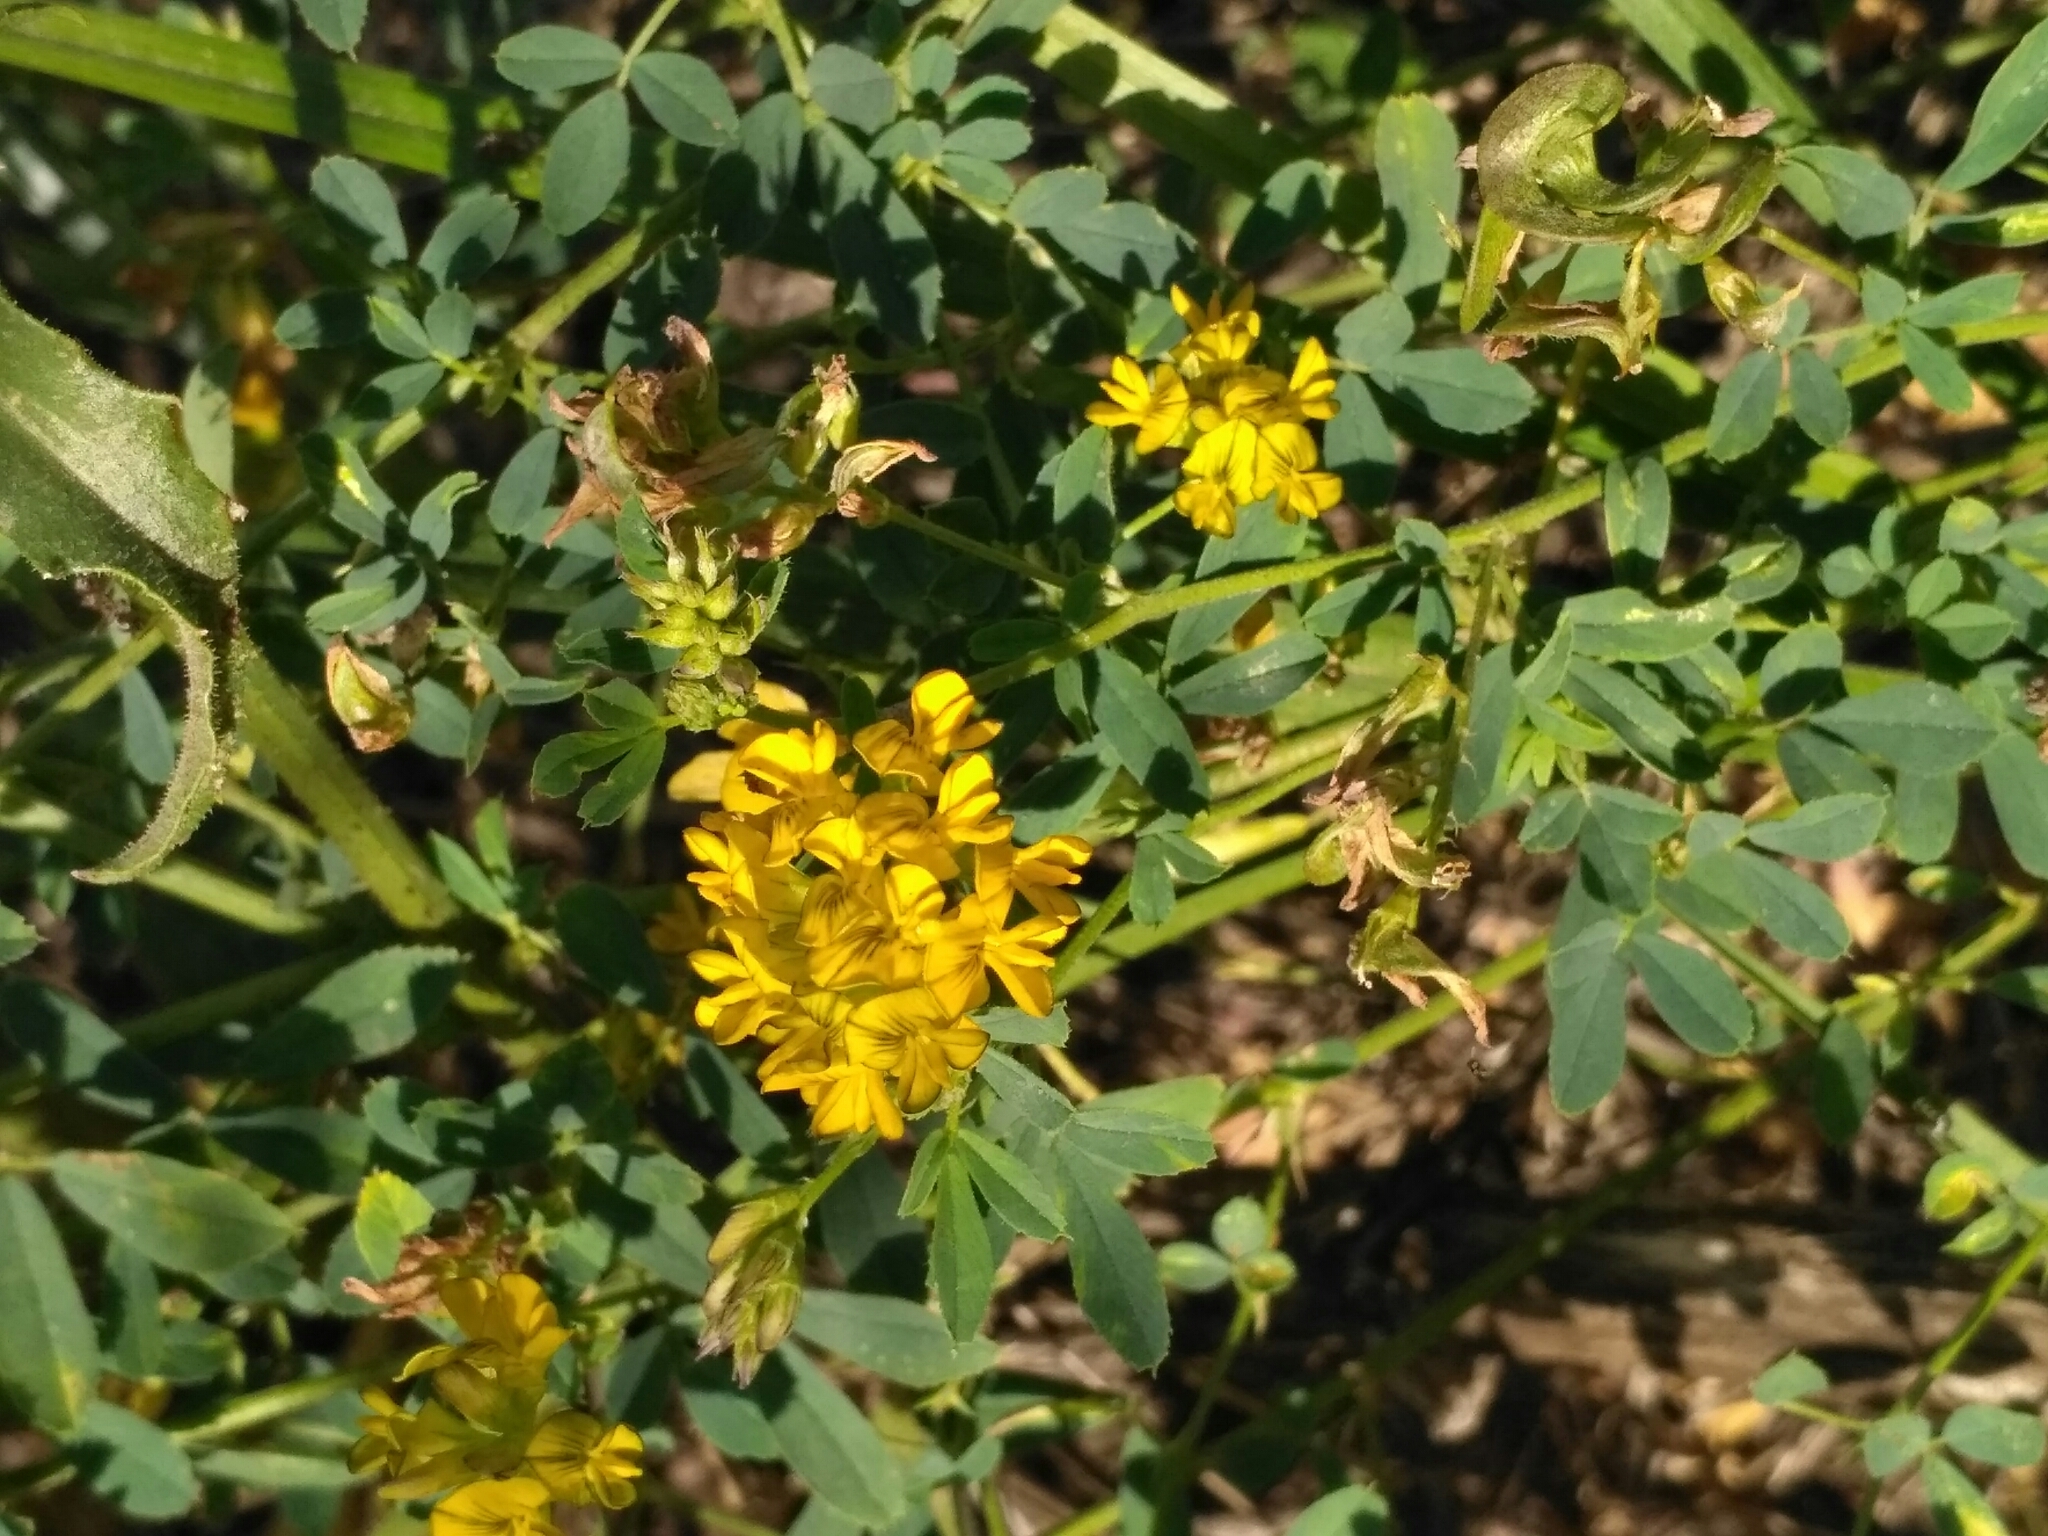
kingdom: Plantae
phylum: Tracheophyta
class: Magnoliopsida
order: Fabales
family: Fabaceae
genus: Medicago
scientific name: Medicago falcata
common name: Sickle medick
